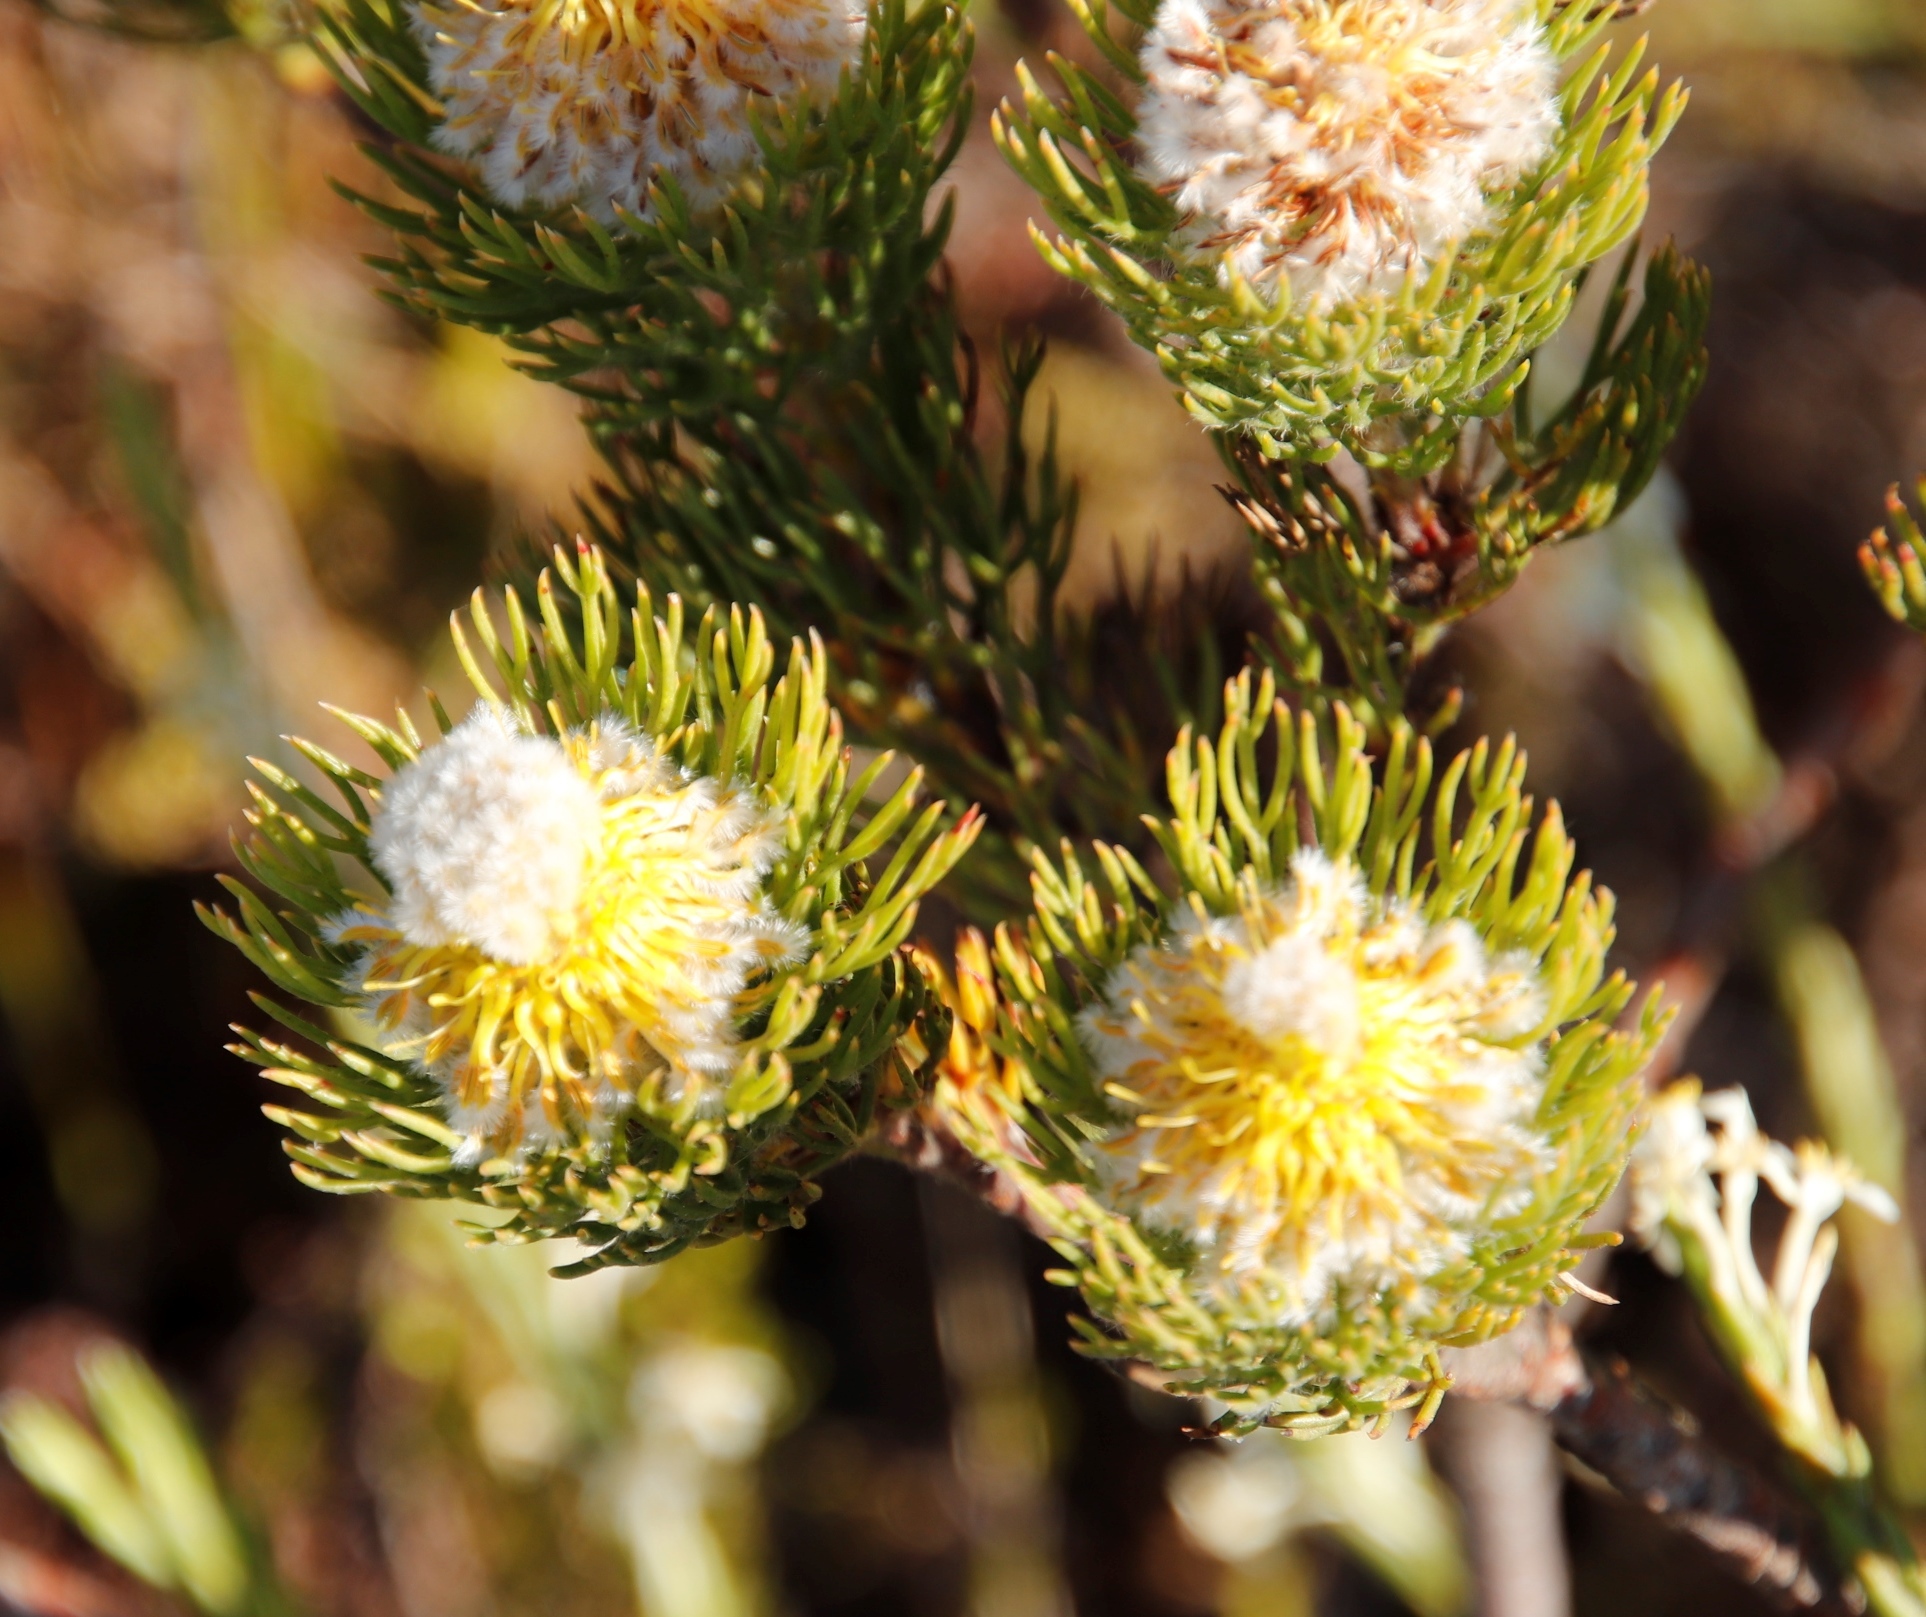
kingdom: Plantae
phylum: Tracheophyta
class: Magnoliopsida
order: Proteales
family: Proteaceae
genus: Serruria
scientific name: Serruria villosa
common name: Golden spiderhead
